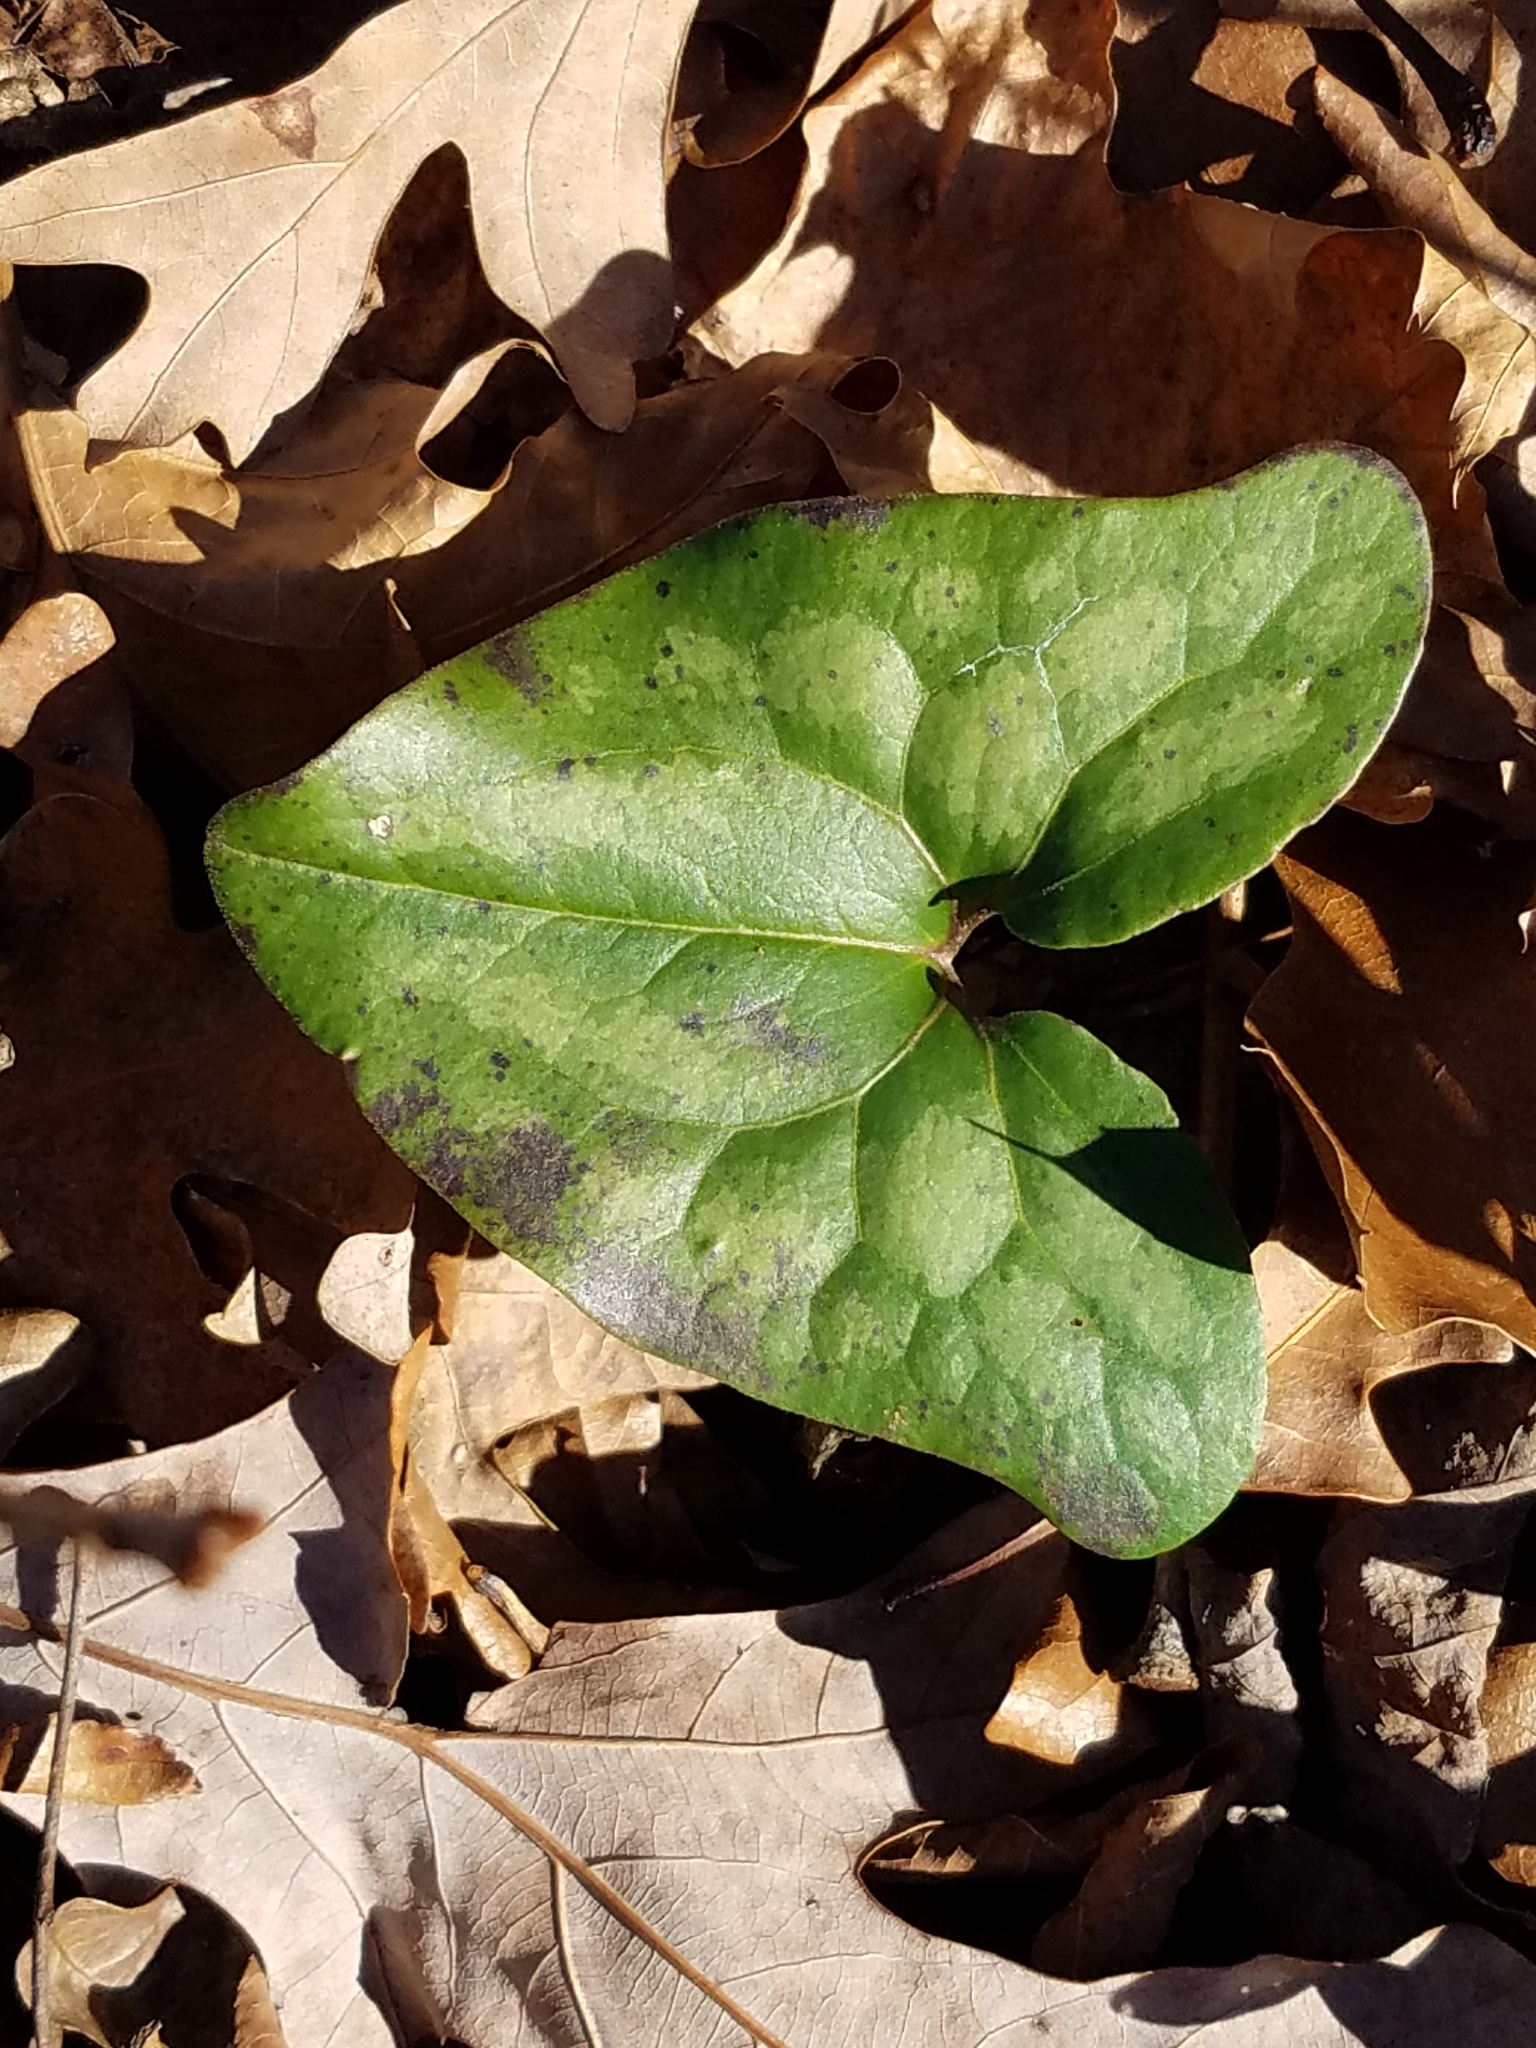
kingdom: Plantae
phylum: Tracheophyta
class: Magnoliopsida
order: Piperales
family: Aristolochiaceae
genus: Hexastylis
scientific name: Hexastylis arifolia
